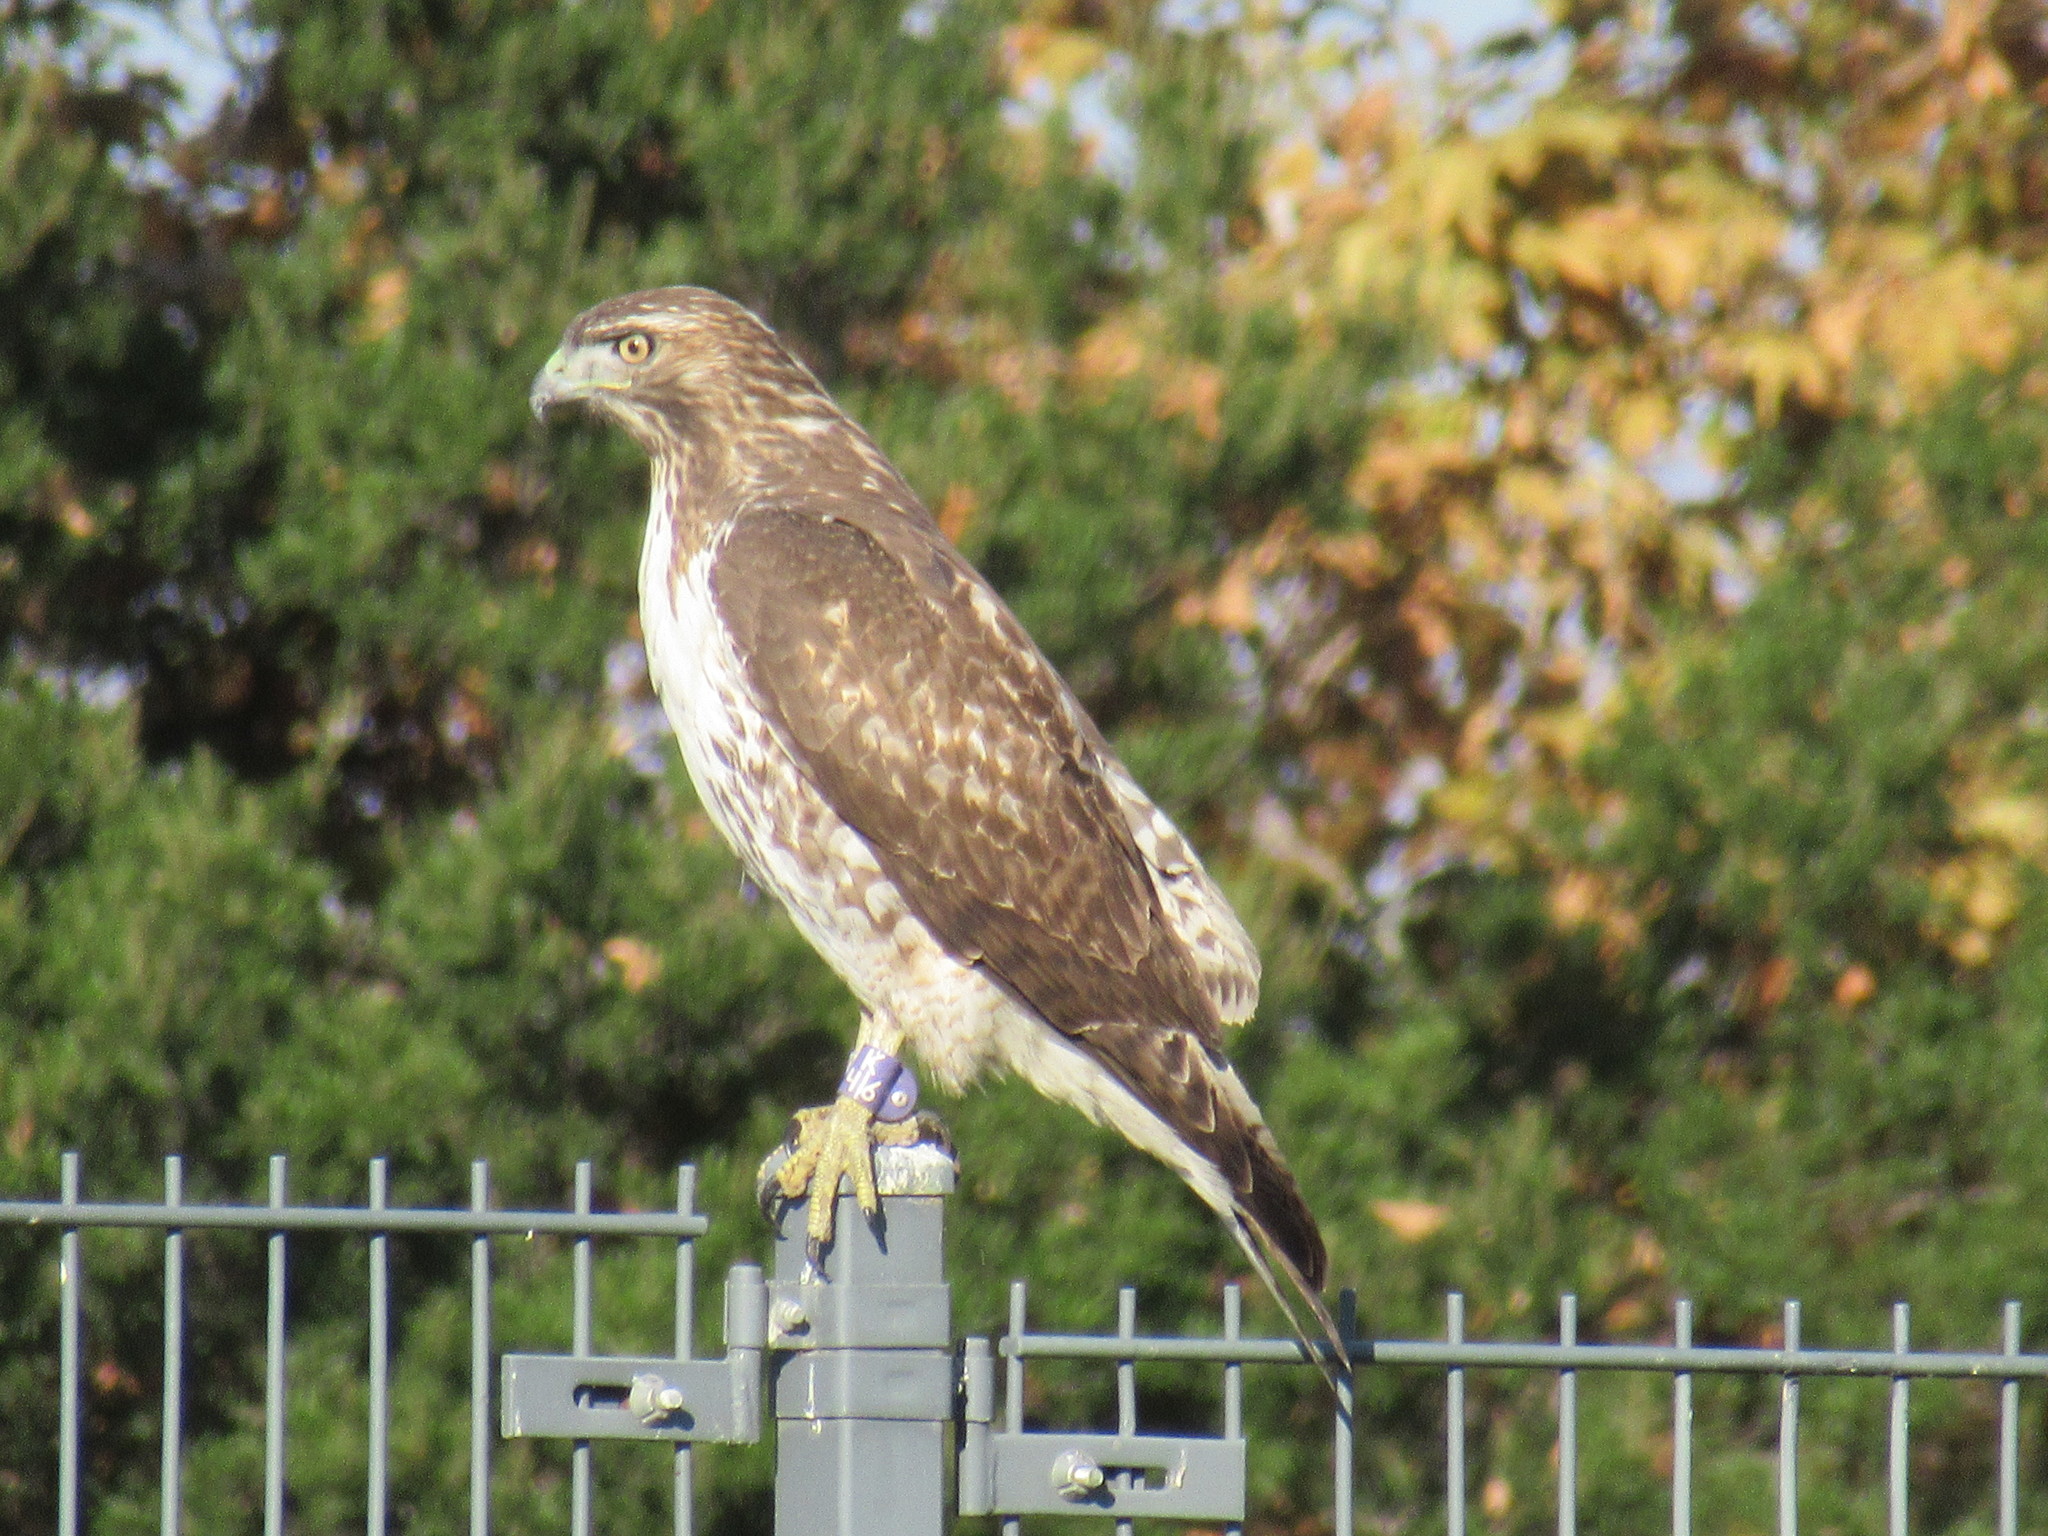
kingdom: Animalia
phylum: Chordata
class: Aves
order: Accipitriformes
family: Accipitridae
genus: Buteo
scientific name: Buteo jamaicensis
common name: Red-tailed hawk
